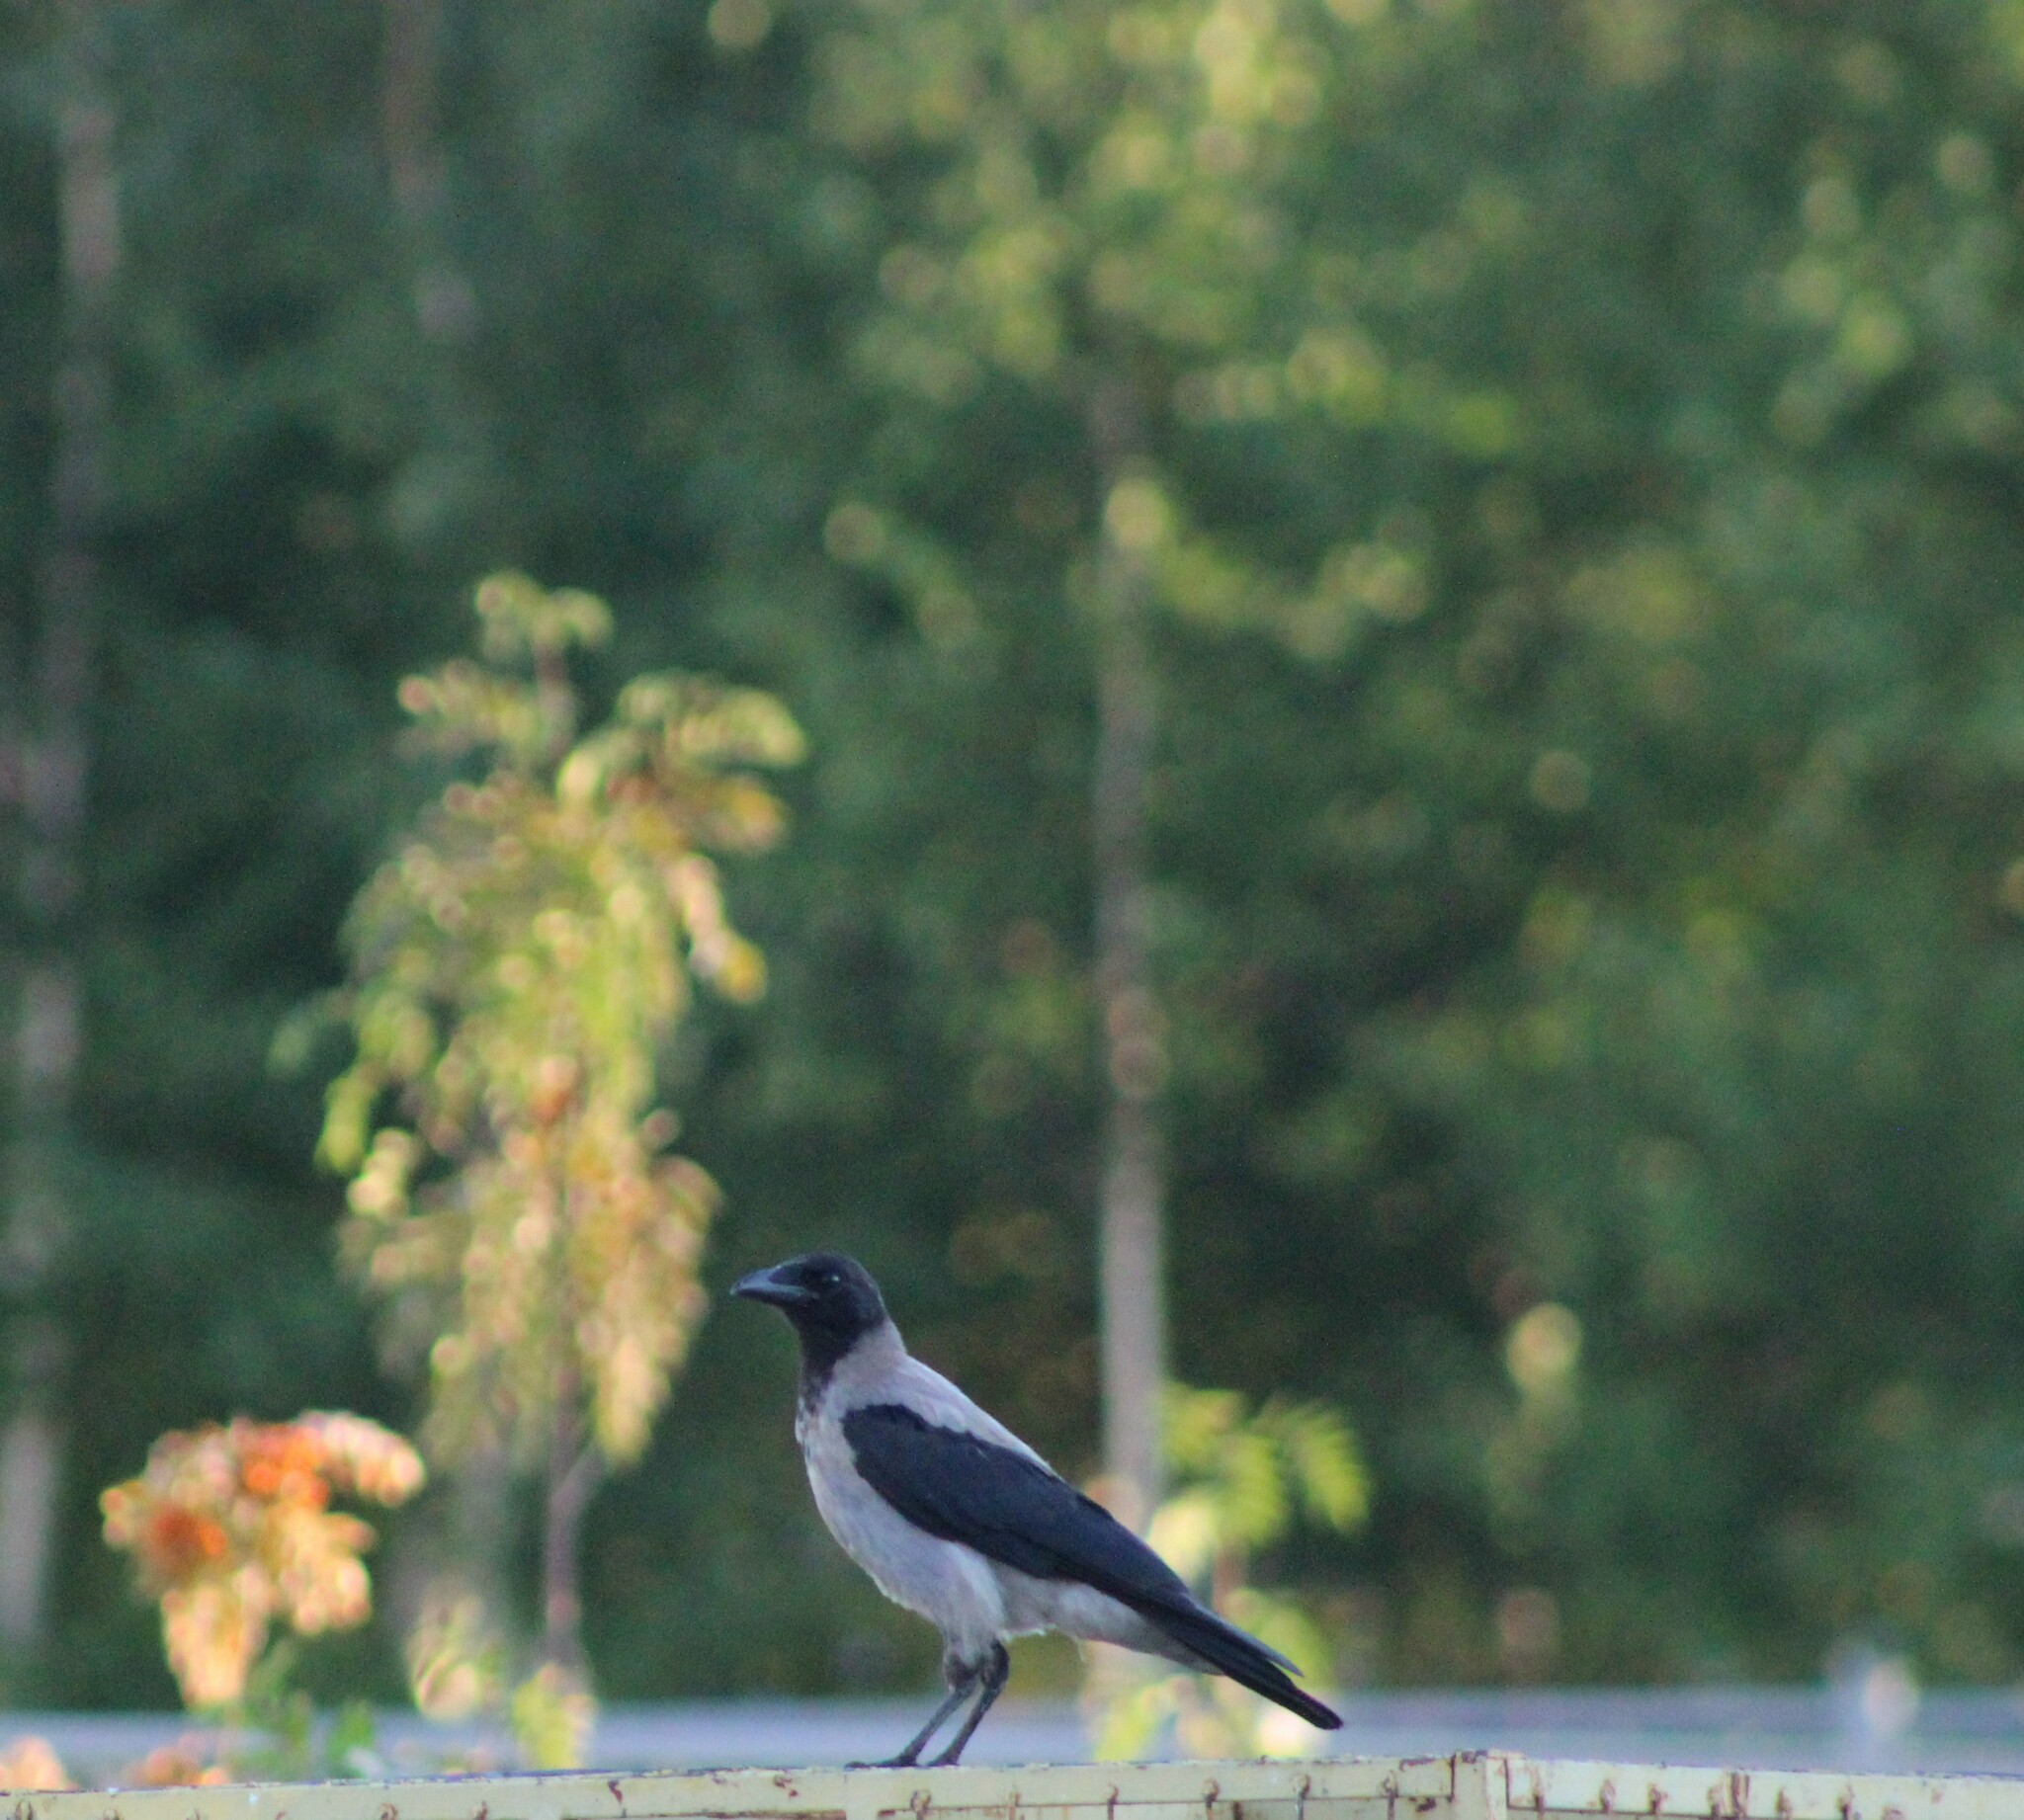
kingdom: Animalia
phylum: Chordata
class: Aves
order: Passeriformes
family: Corvidae
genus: Corvus
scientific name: Corvus cornix
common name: Hooded crow
